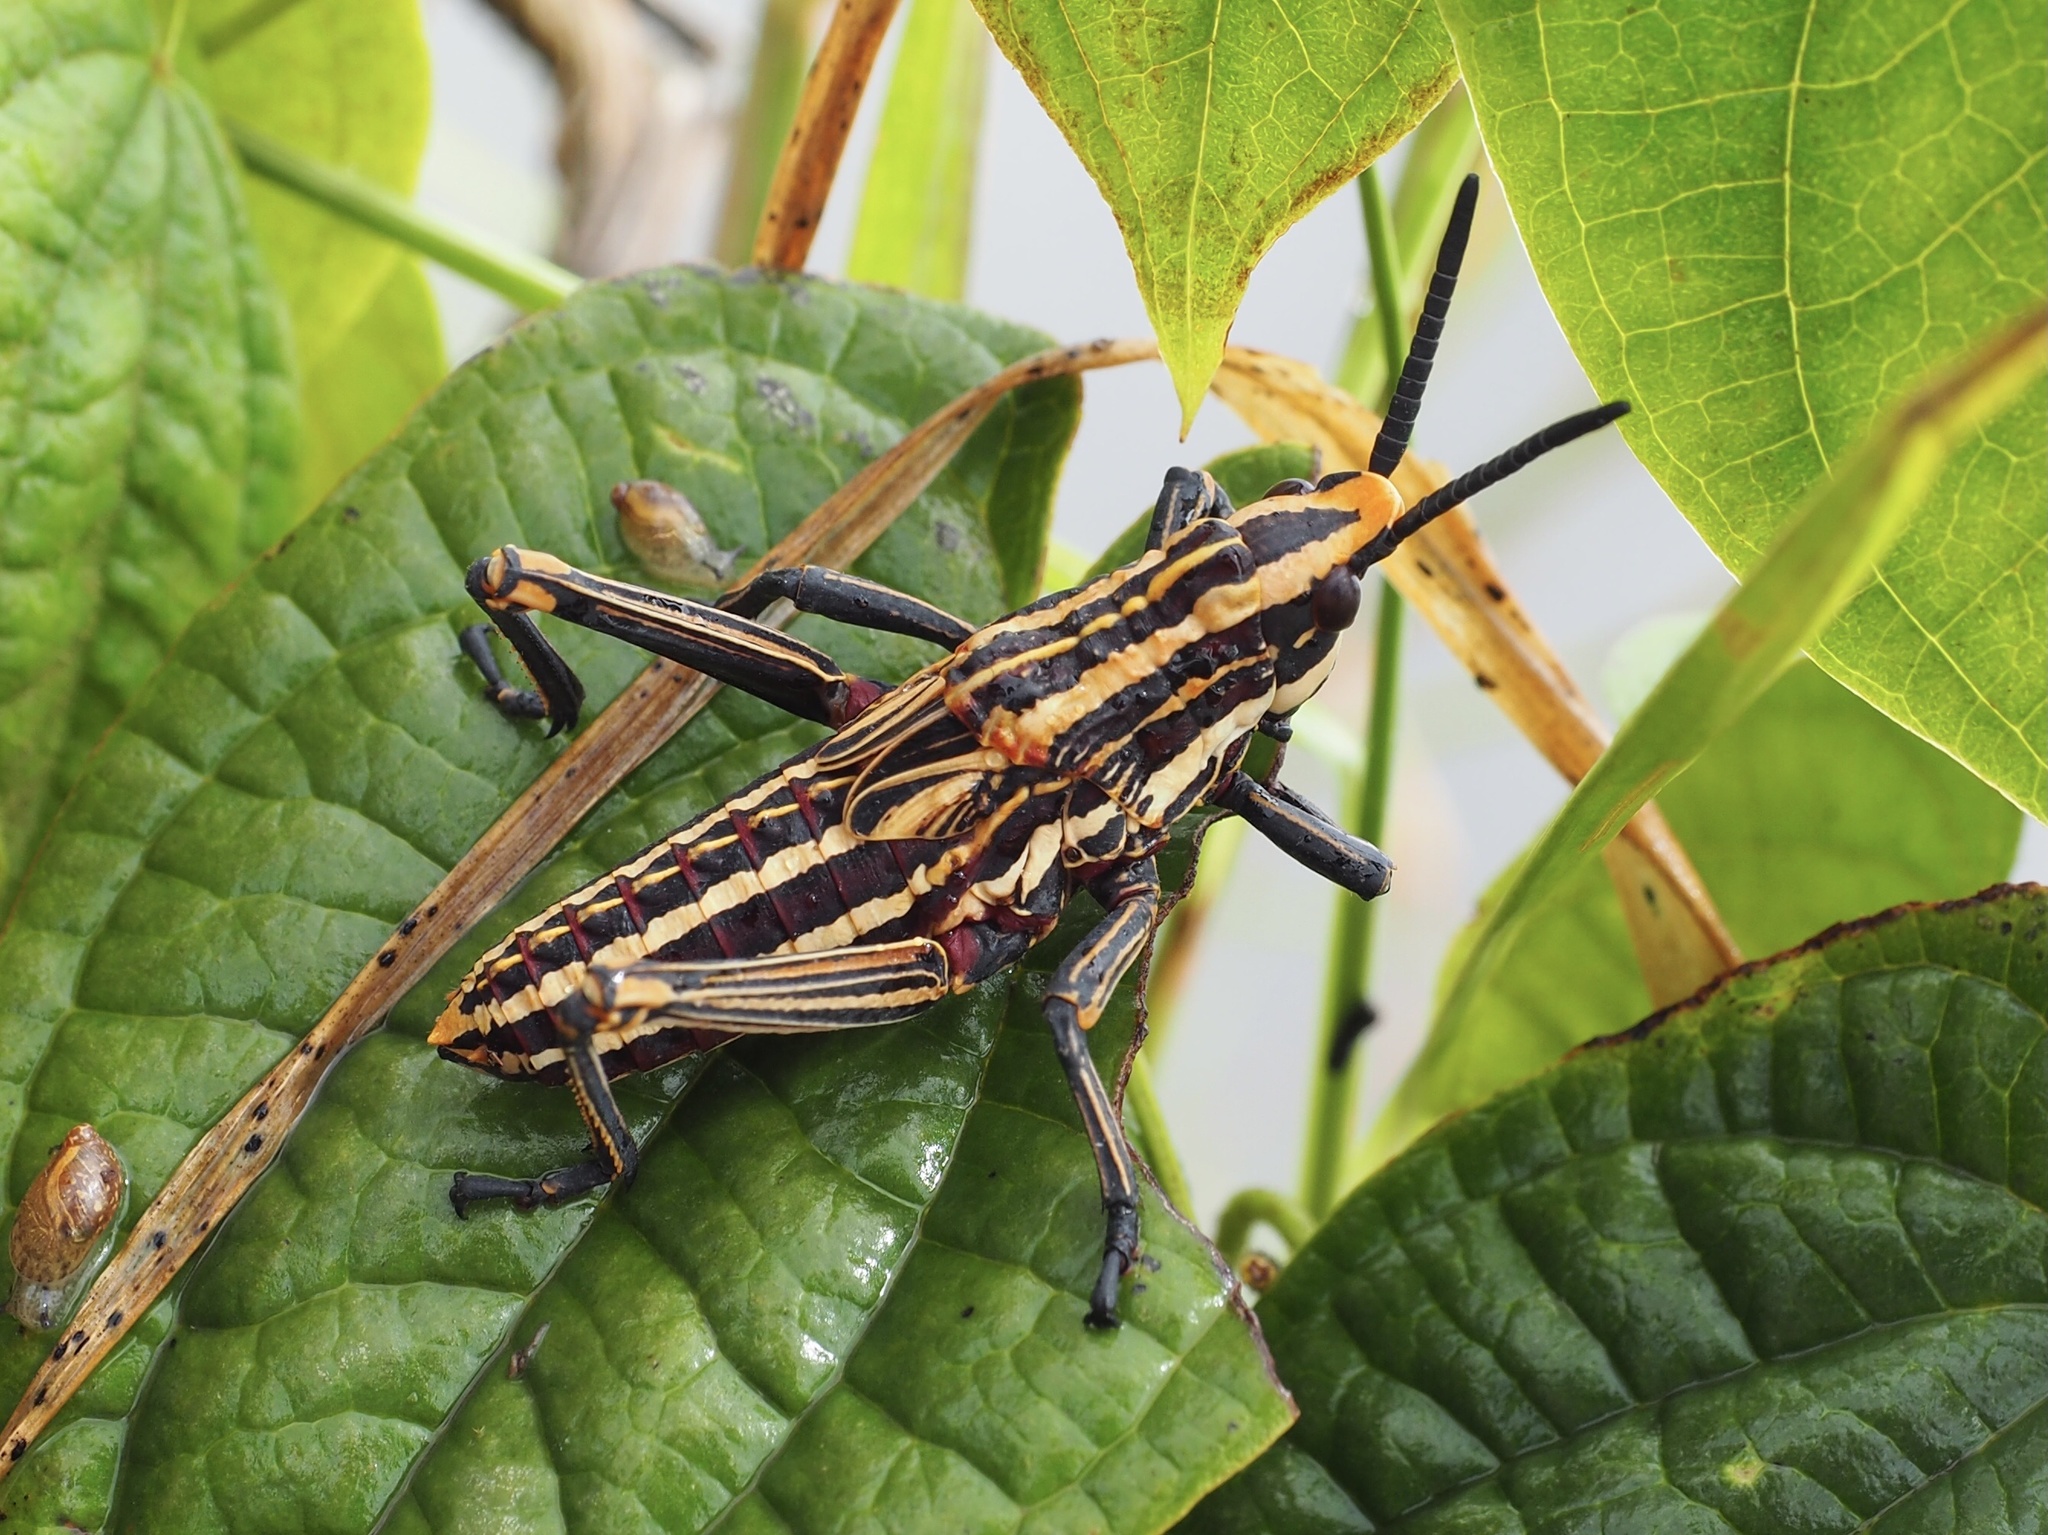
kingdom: Animalia
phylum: Arthropoda
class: Insecta
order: Orthoptera
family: Pyrgomorphidae
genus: Dictyophorus
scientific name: Dictyophorus griseus
